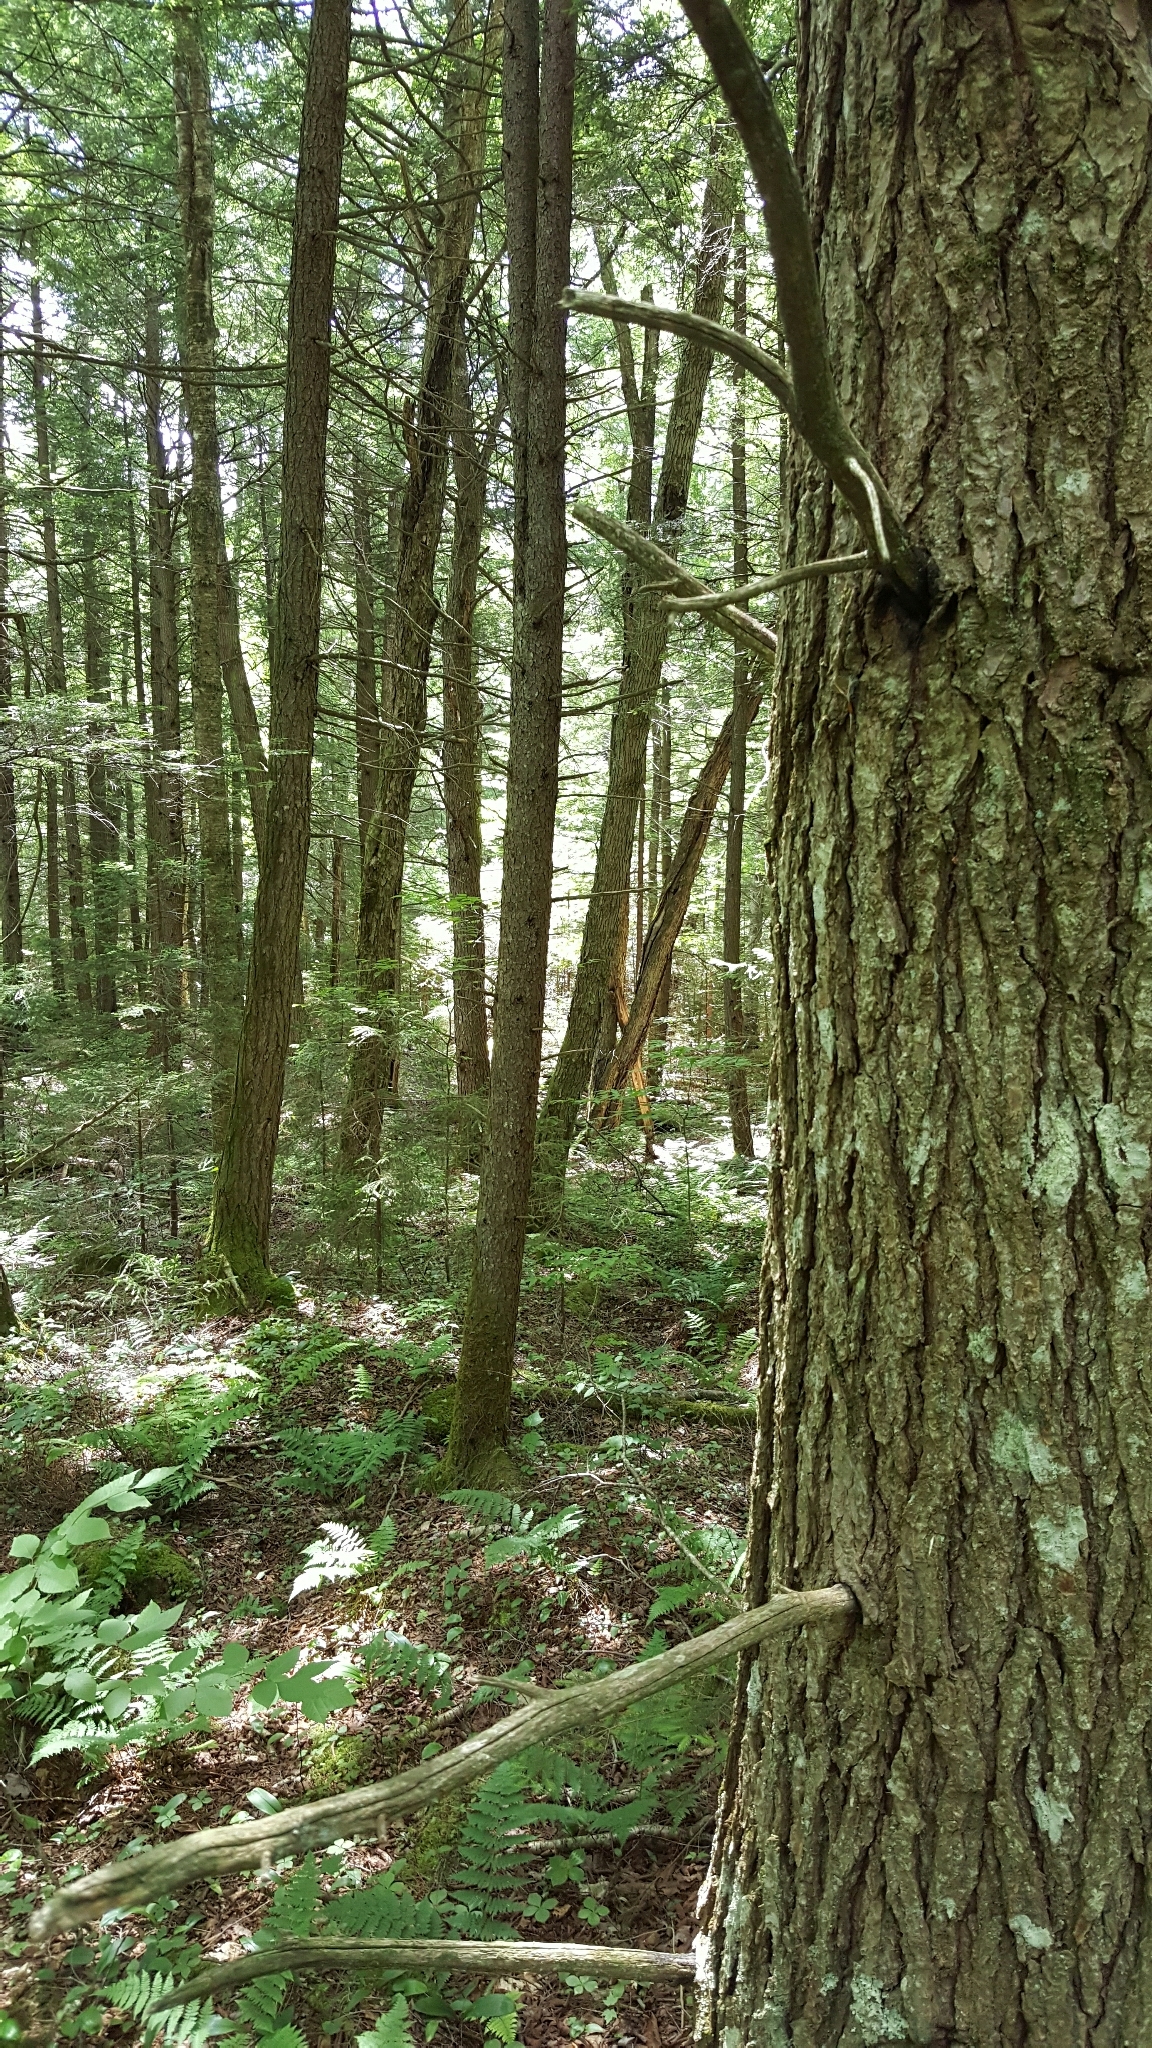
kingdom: Plantae
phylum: Tracheophyta
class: Pinopsida
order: Pinales
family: Pinaceae
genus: Tsuga
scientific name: Tsuga canadensis
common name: Eastern hemlock
